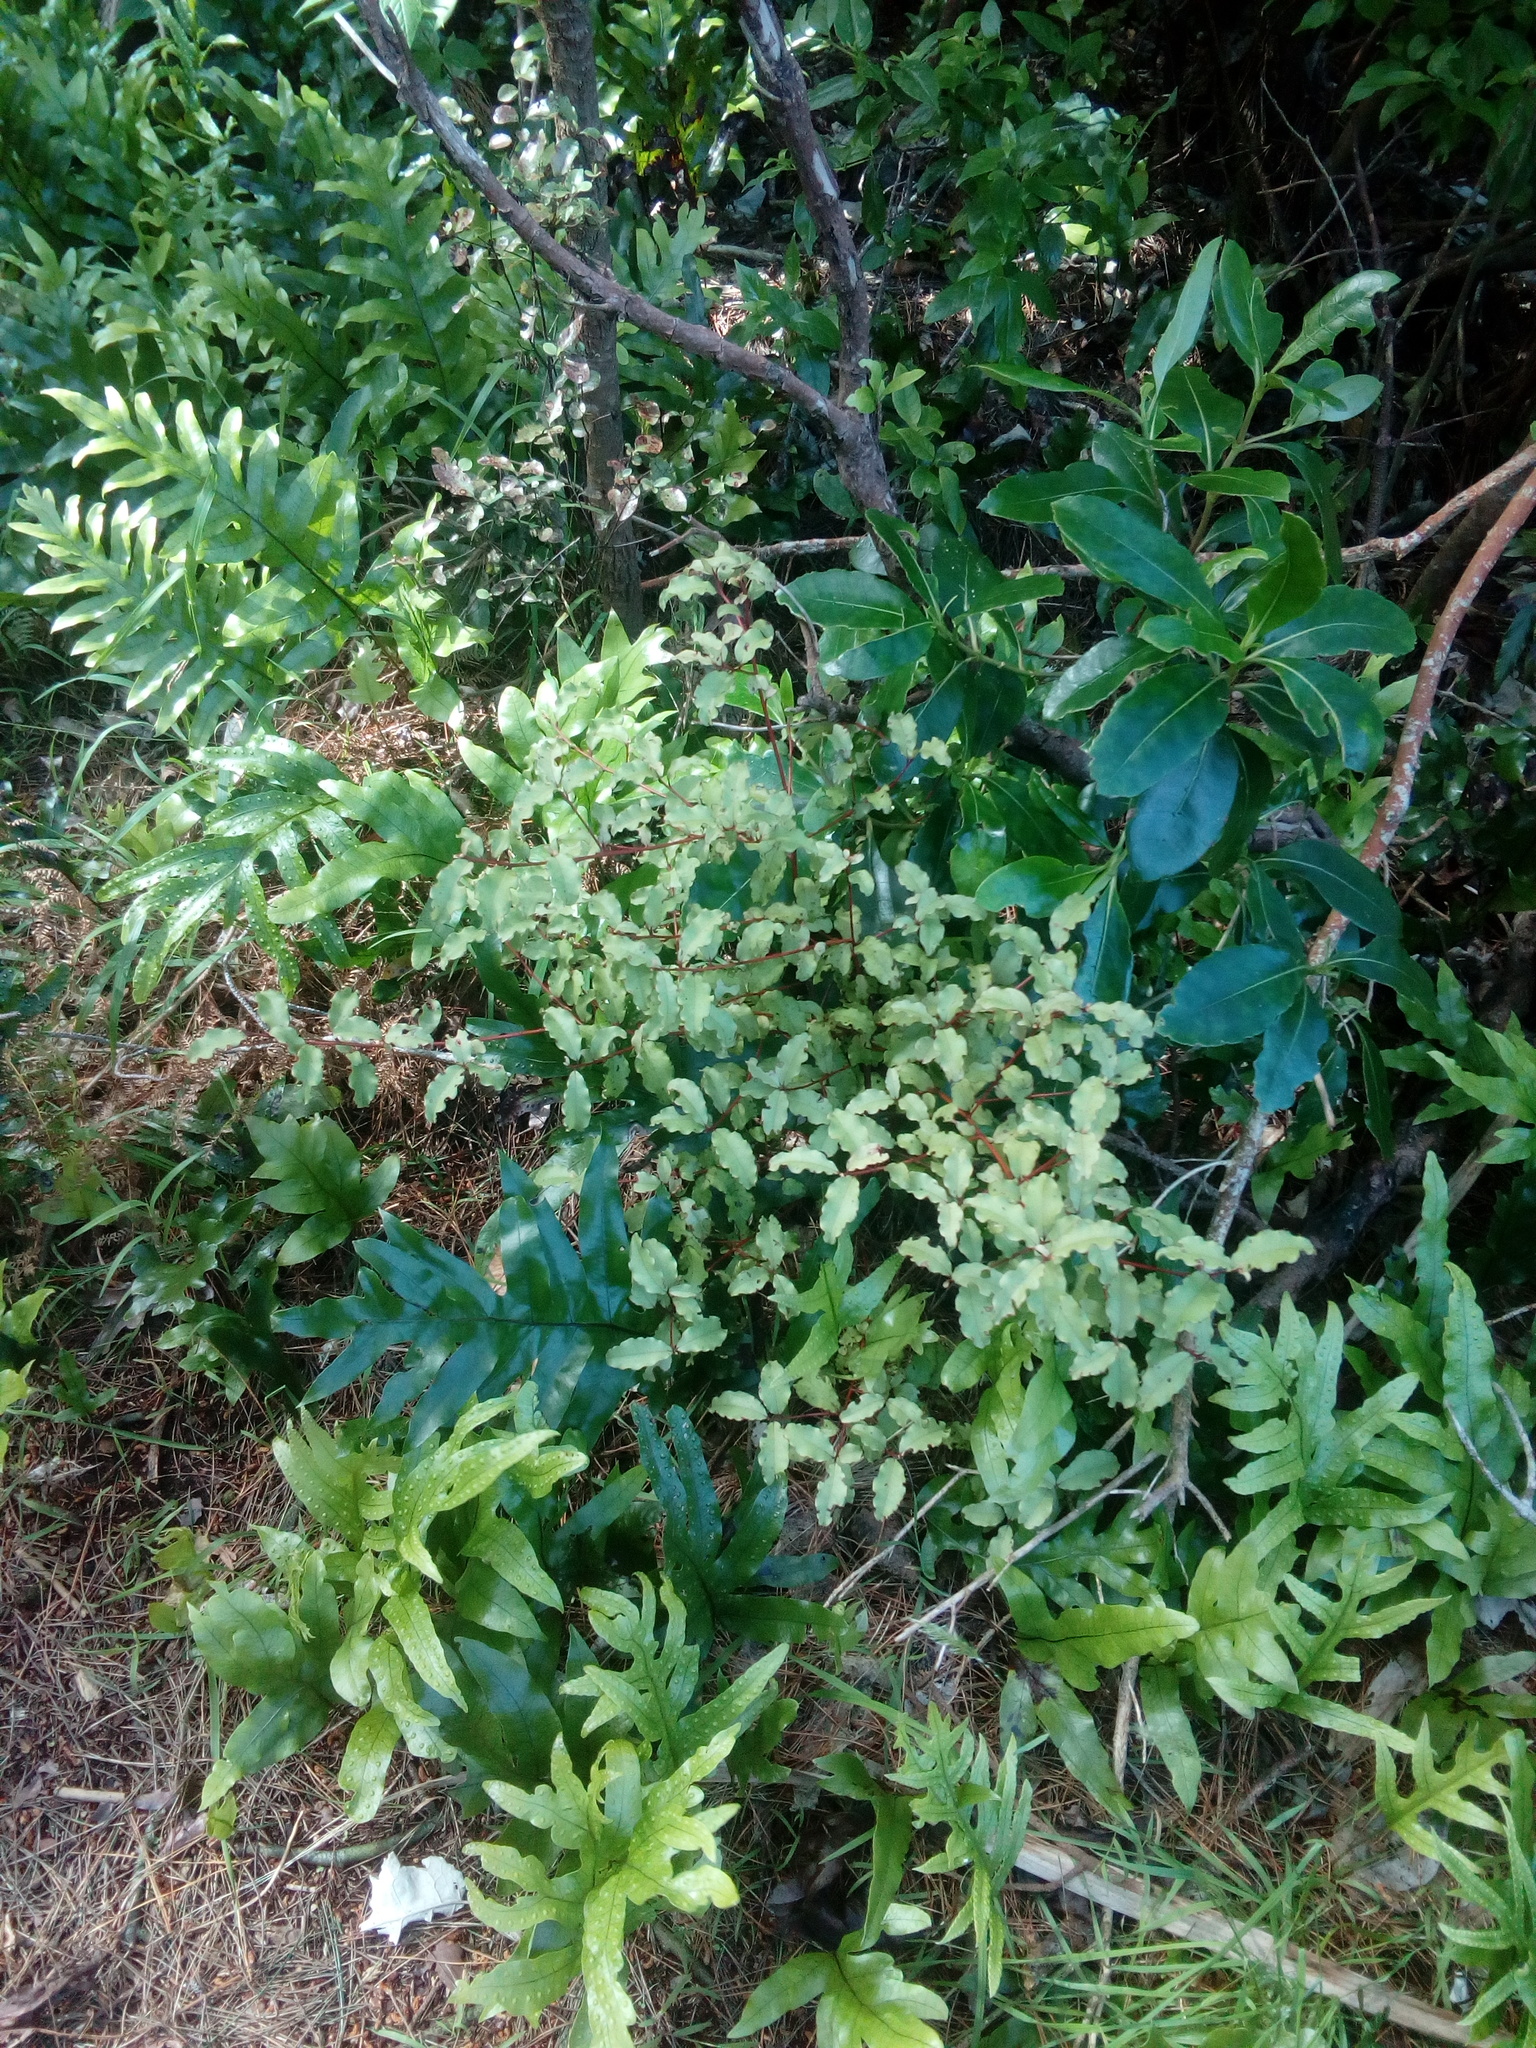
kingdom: Plantae
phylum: Tracheophyta
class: Magnoliopsida
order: Ericales
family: Primulaceae
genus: Myrsine
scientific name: Myrsine australis
